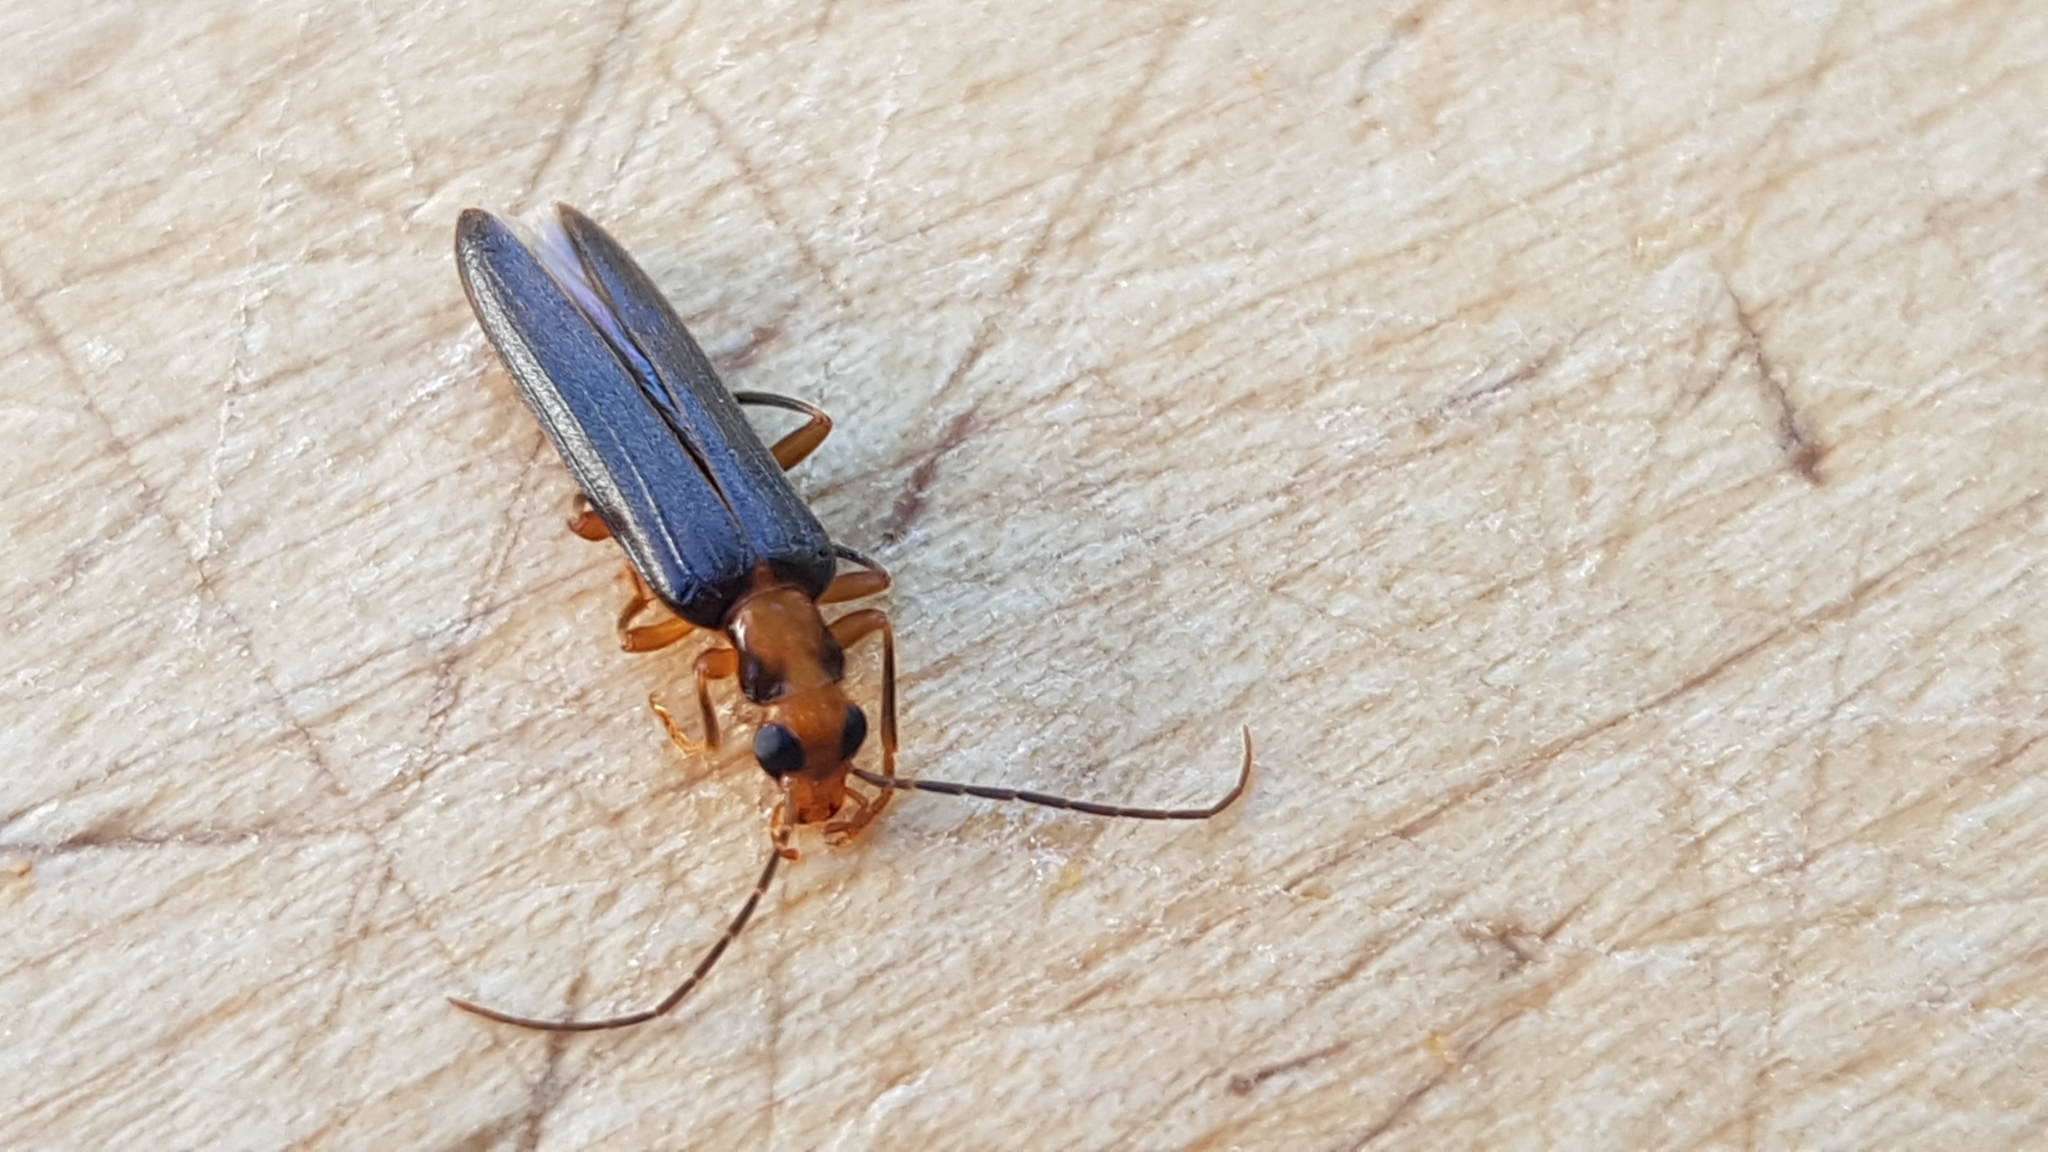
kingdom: Animalia
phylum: Arthropoda
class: Insecta
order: Coleoptera
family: Oedemeridae
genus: Nacerdes
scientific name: Nacerdes carniolica
